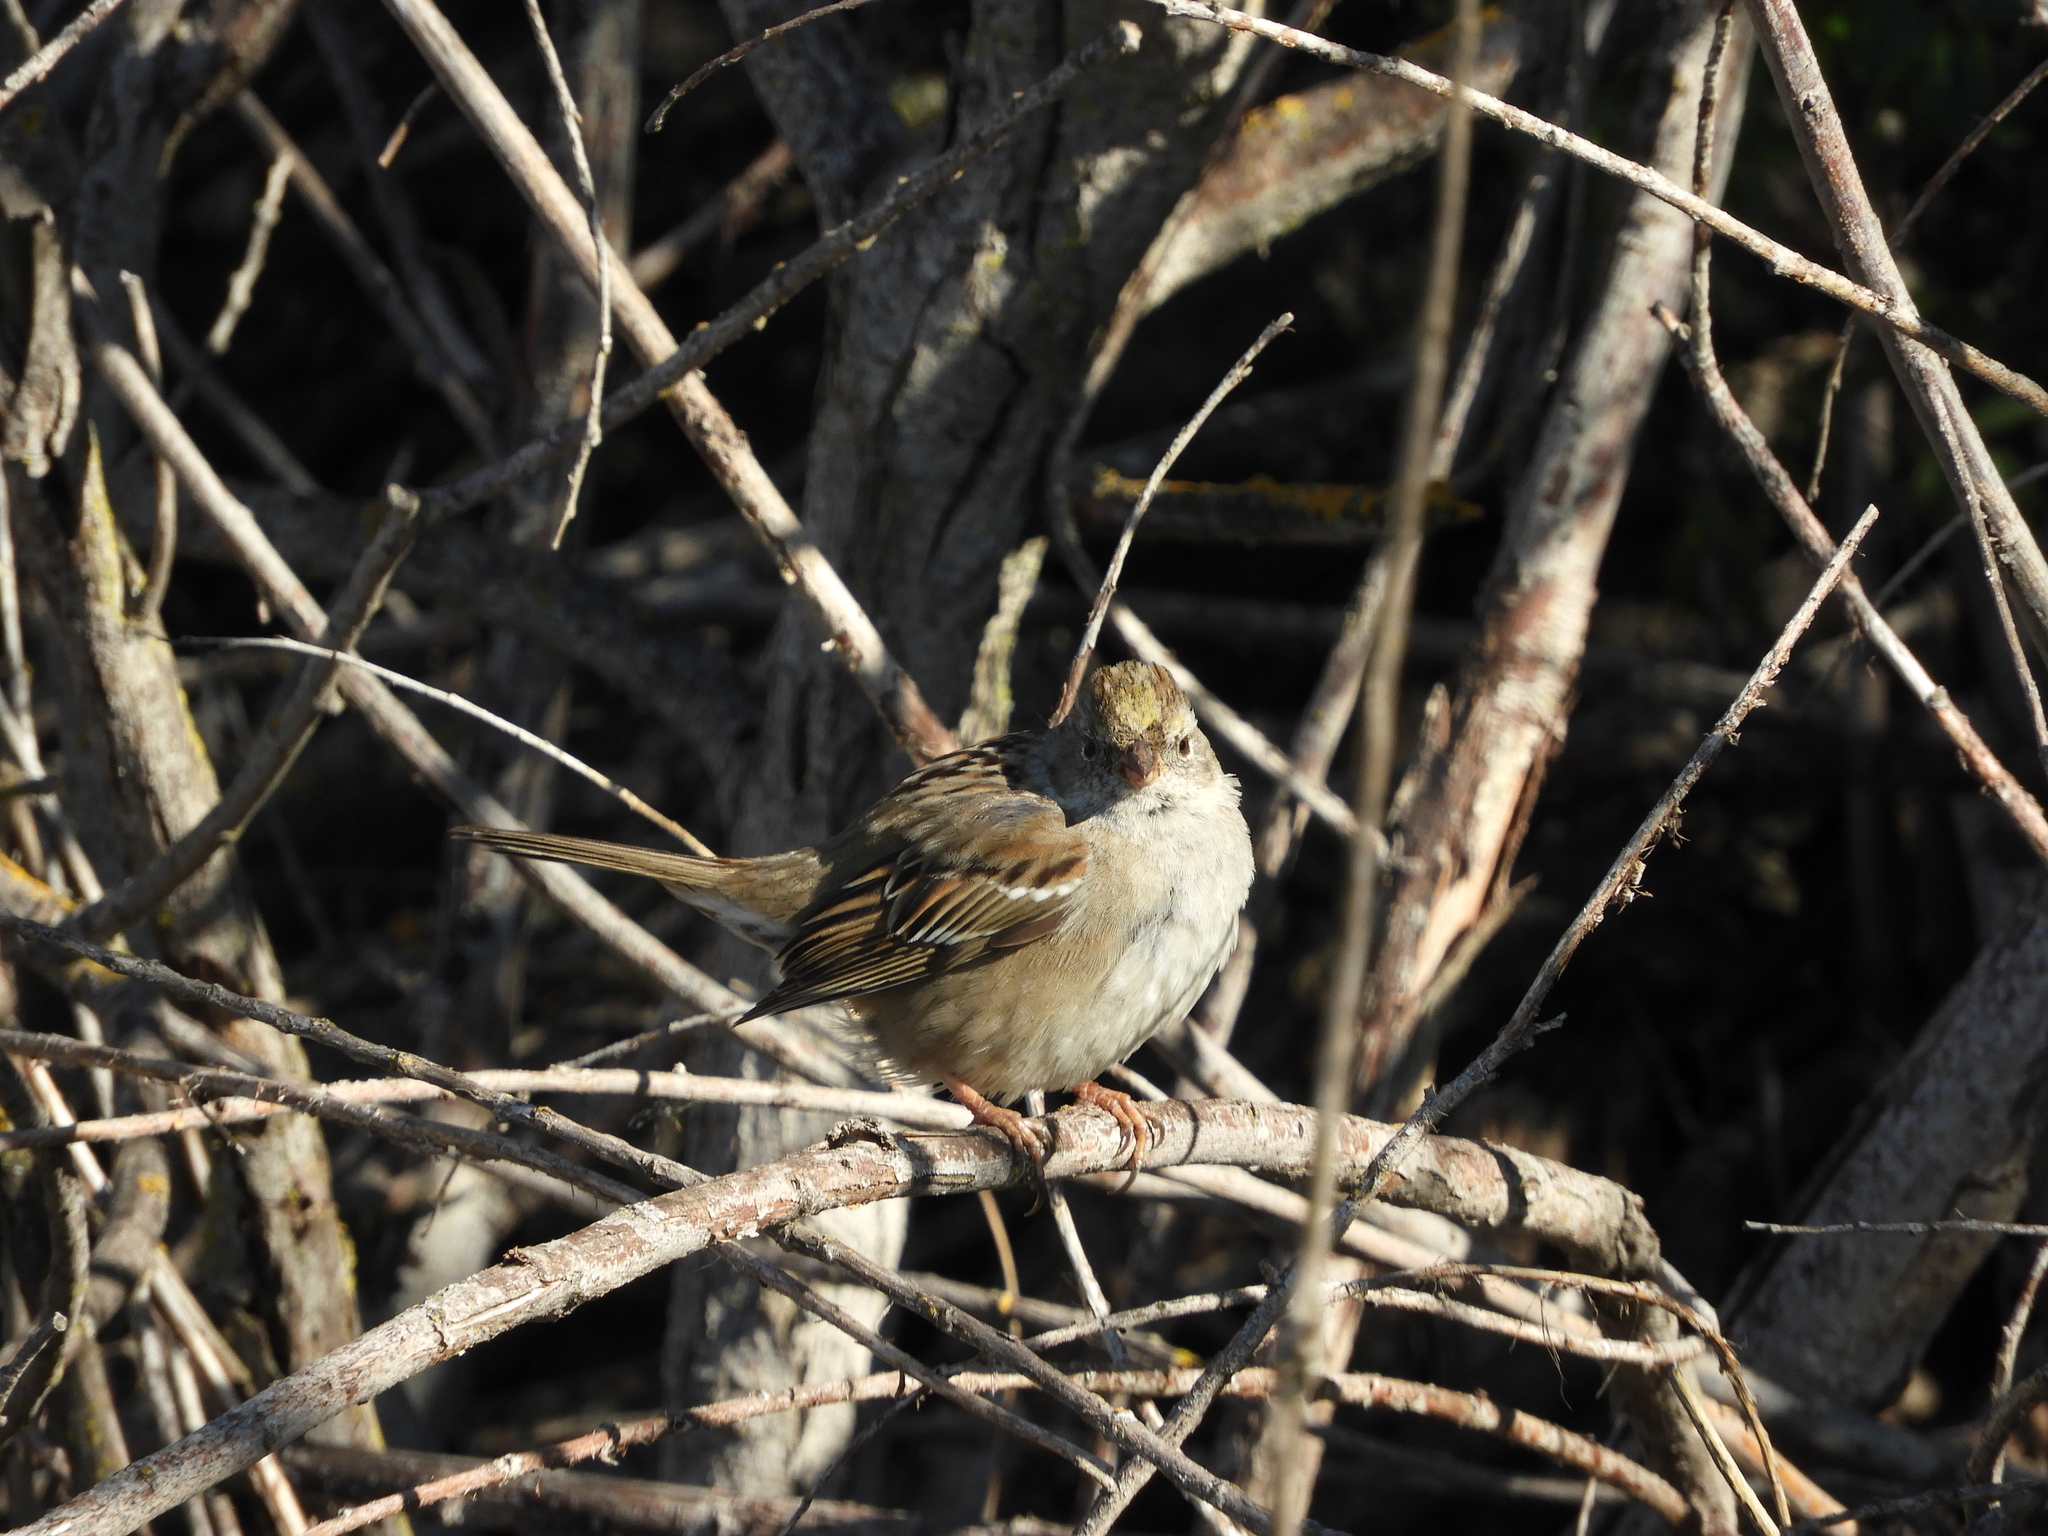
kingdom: Animalia
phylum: Chordata
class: Aves
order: Passeriformes
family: Passerellidae
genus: Zonotrichia
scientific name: Zonotrichia atricapilla
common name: Golden-crowned sparrow
